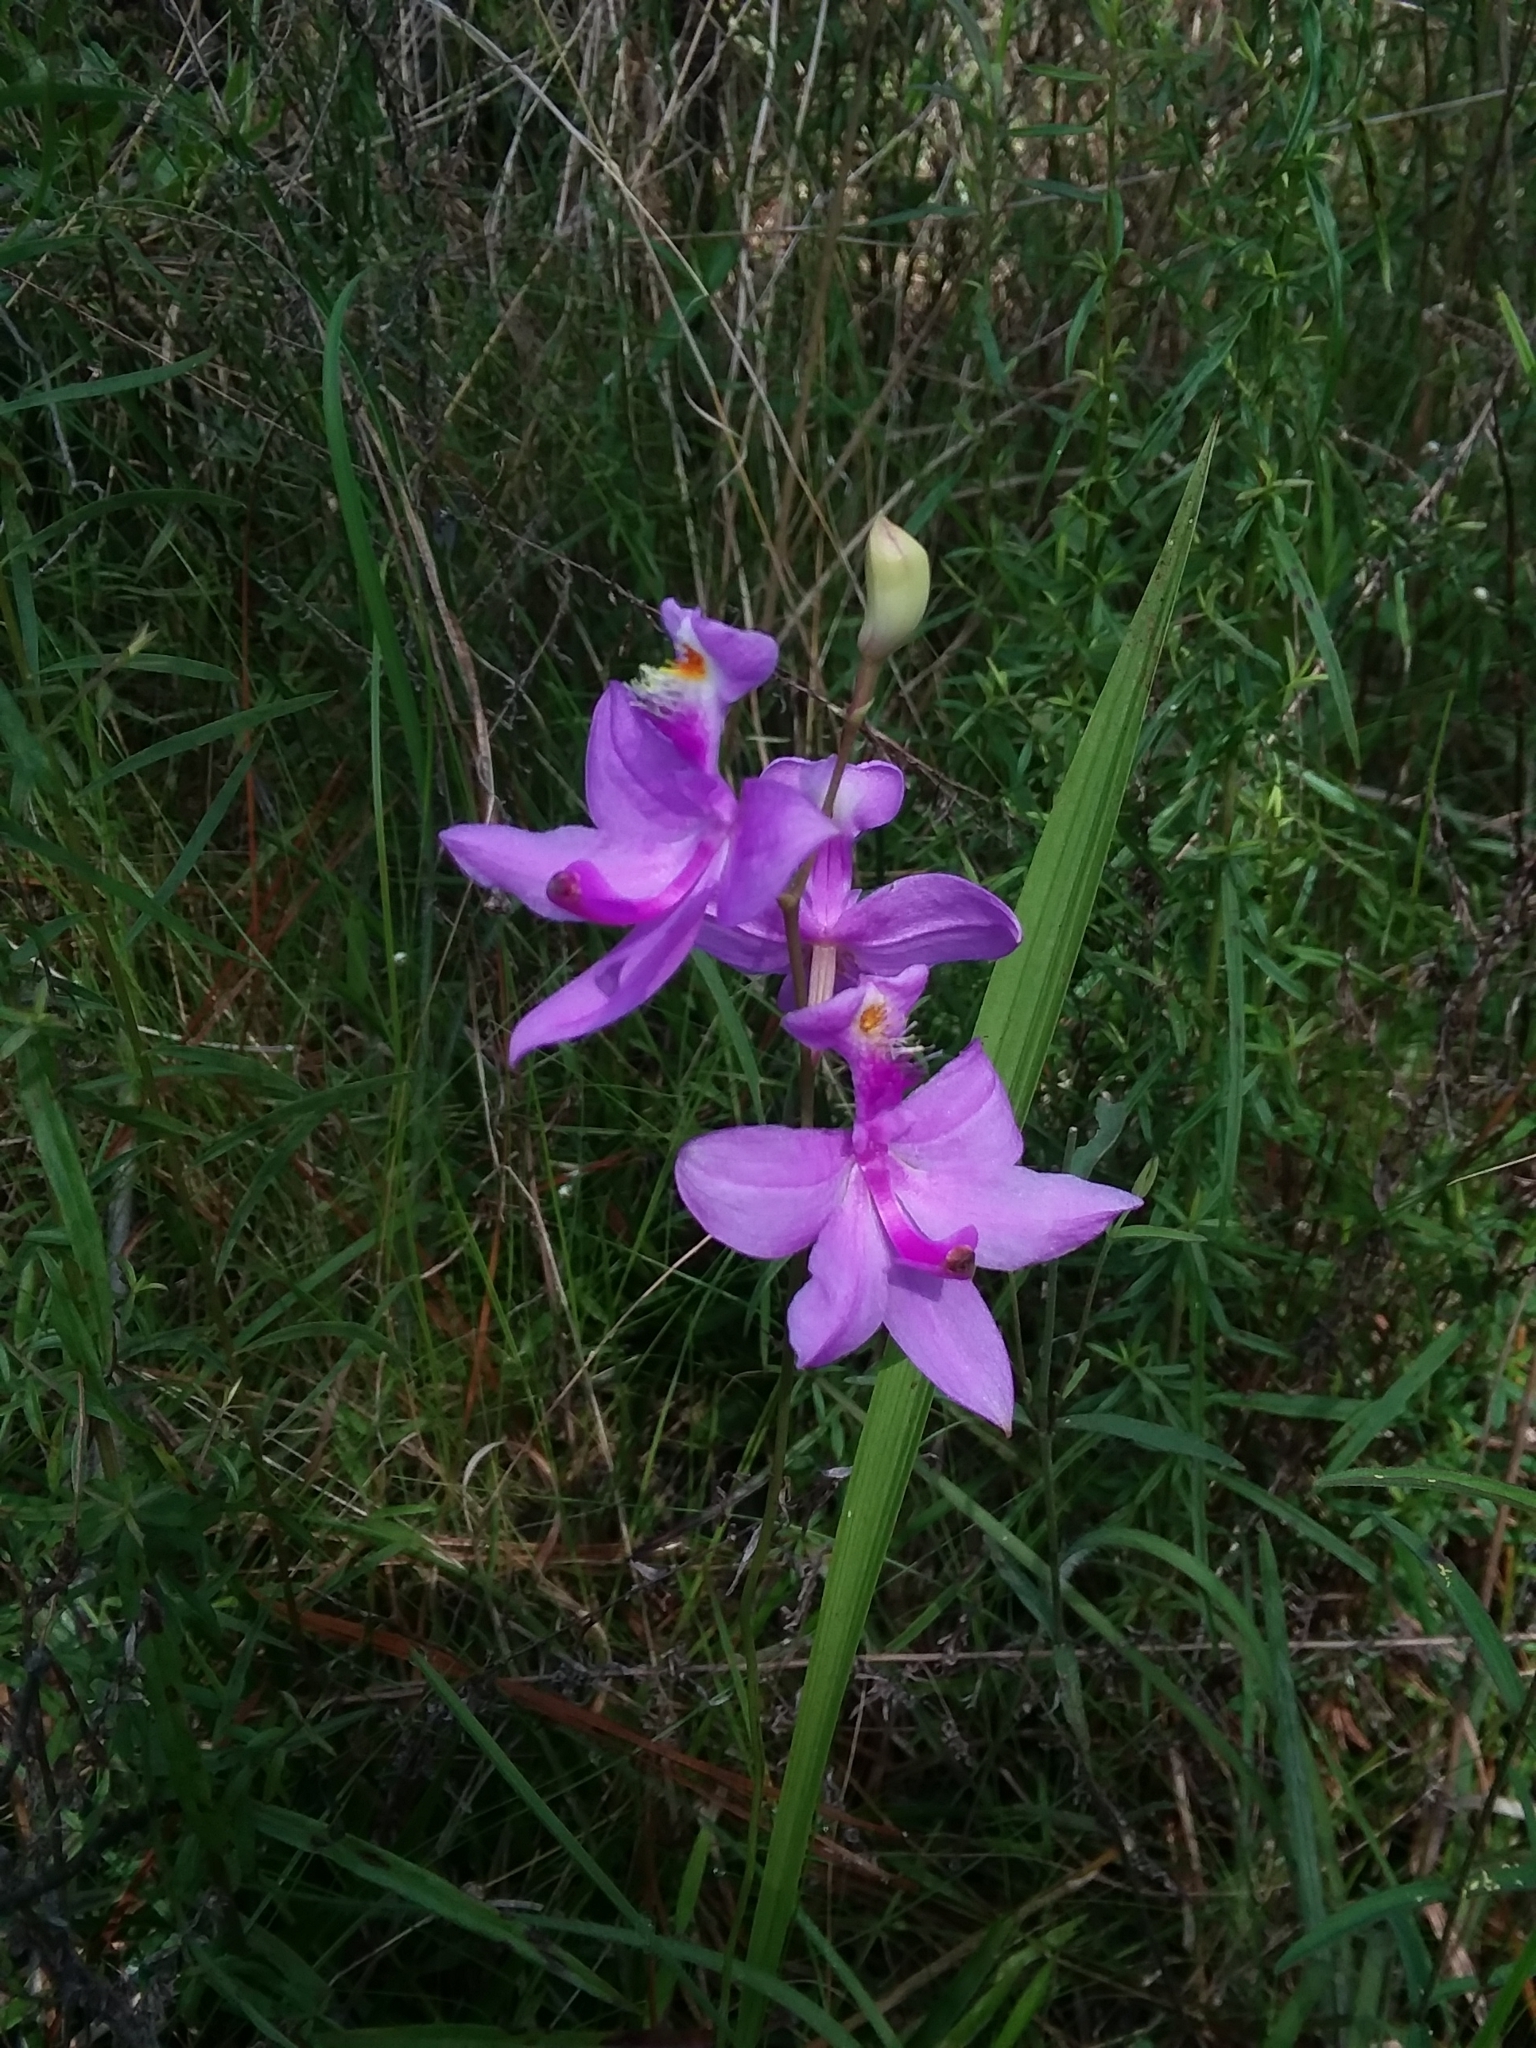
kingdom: Plantae
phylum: Tracheophyta
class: Liliopsida
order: Asparagales
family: Orchidaceae
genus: Calopogon
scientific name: Calopogon tuberosus
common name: Grass-pink
